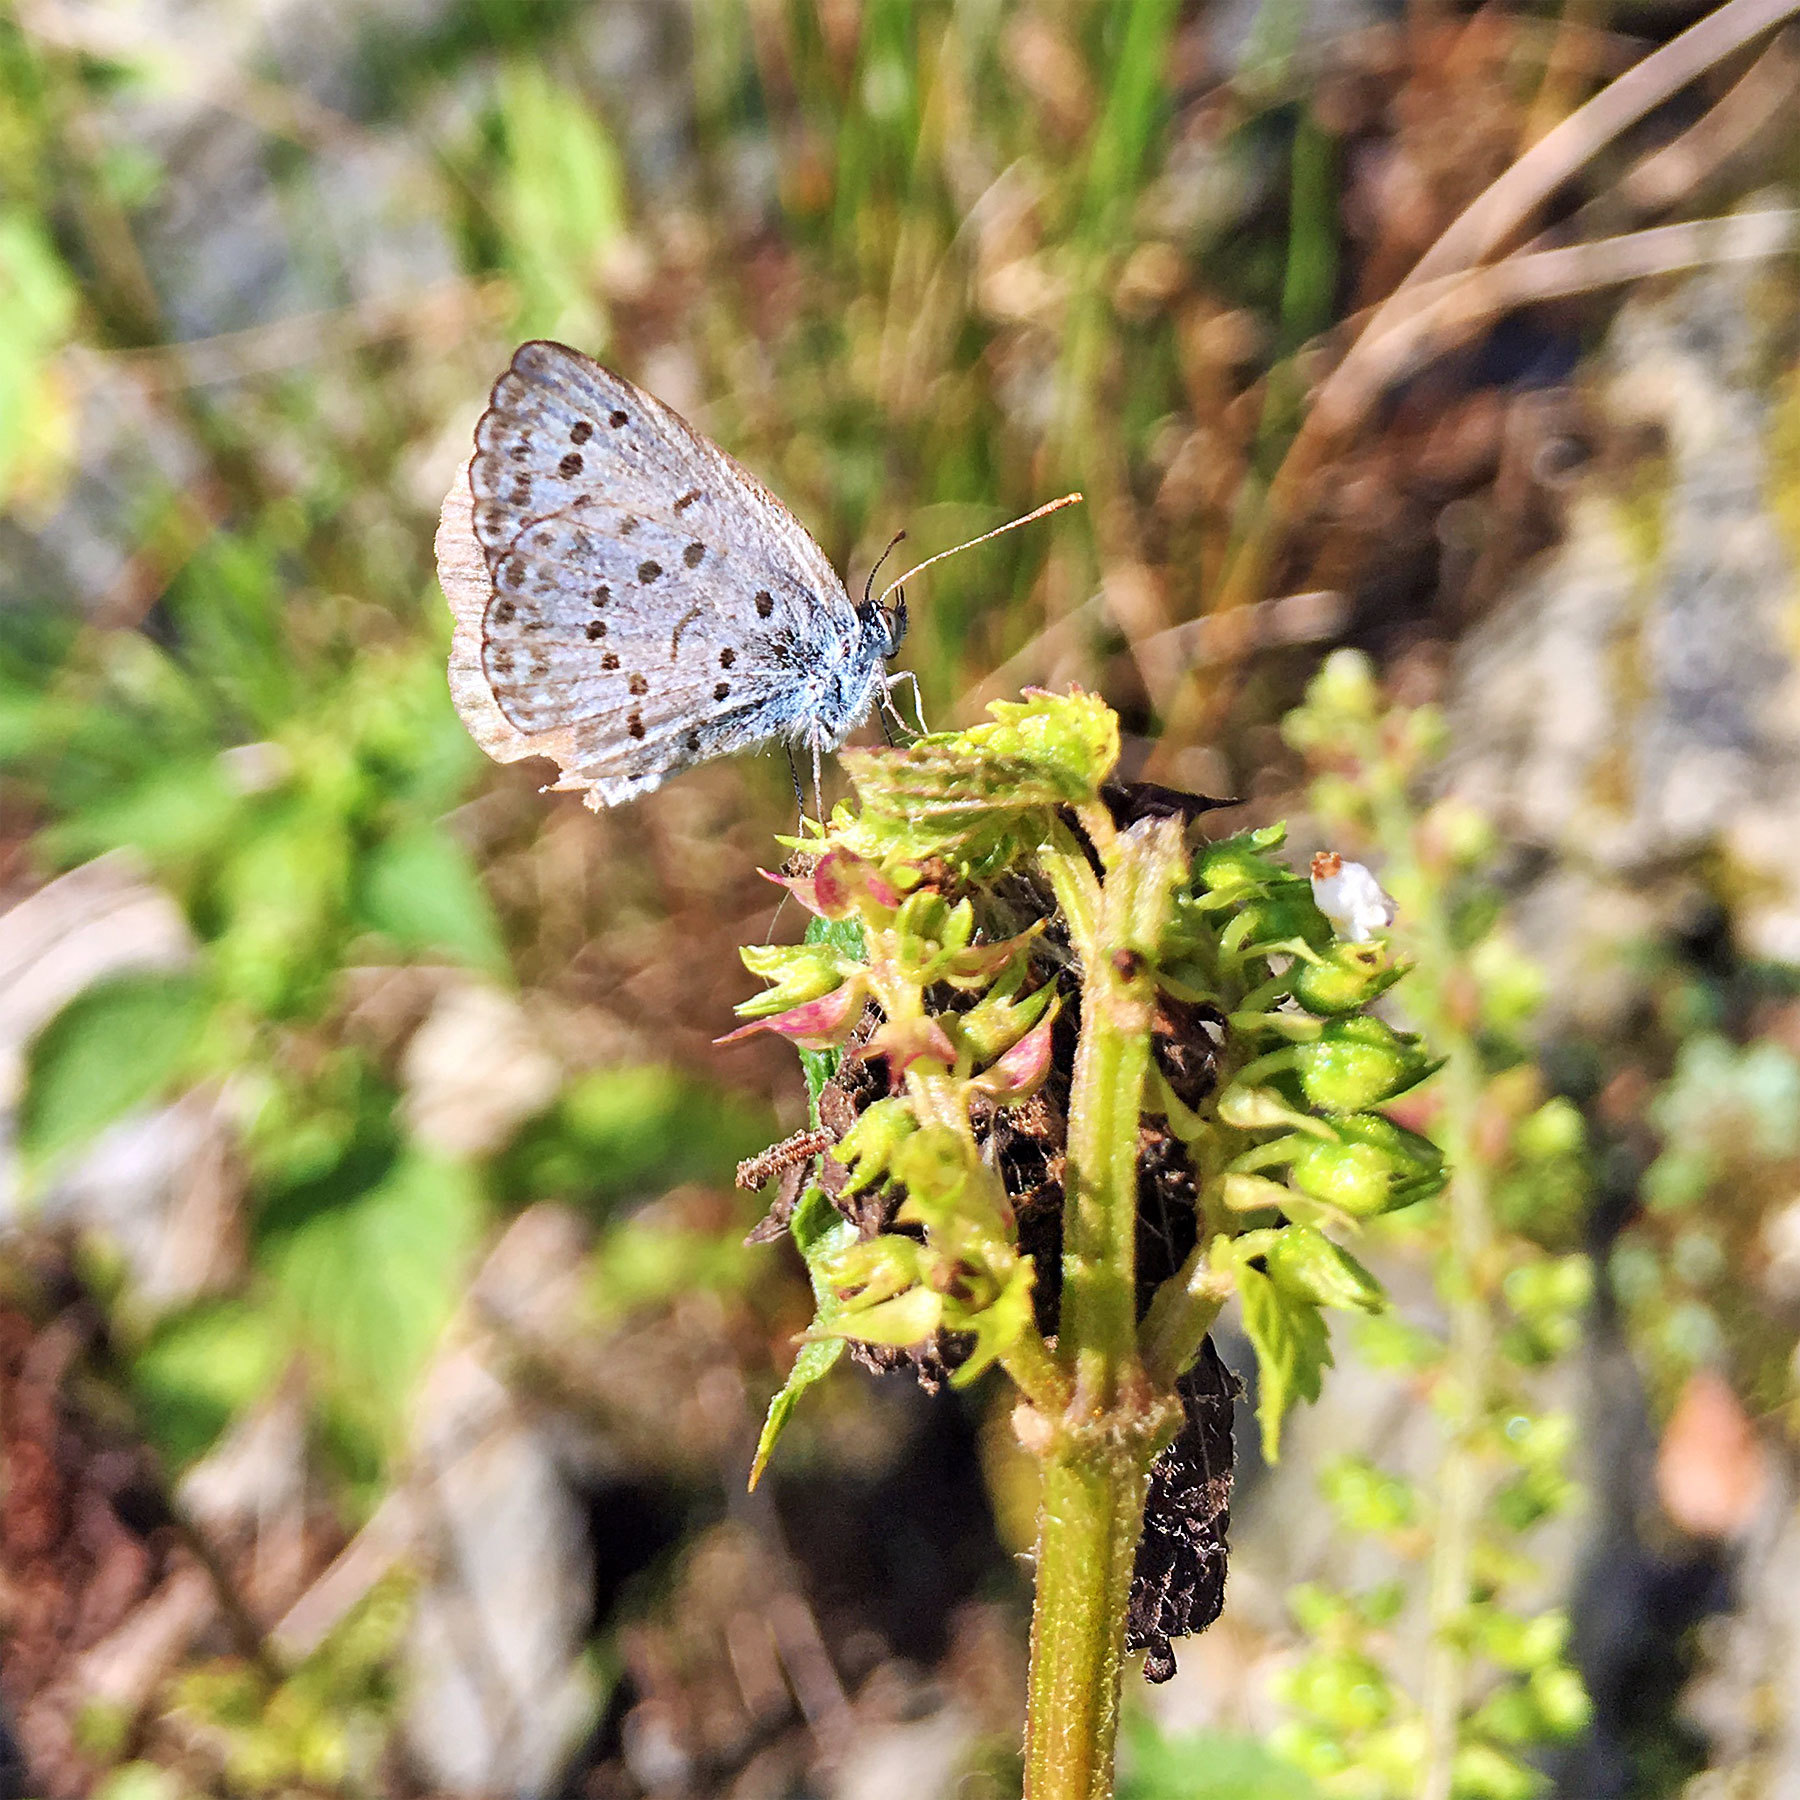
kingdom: Animalia
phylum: Arthropoda
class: Insecta
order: Lepidoptera
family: Lycaenidae
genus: Pseudozizeeria
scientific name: Pseudozizeeria maha
